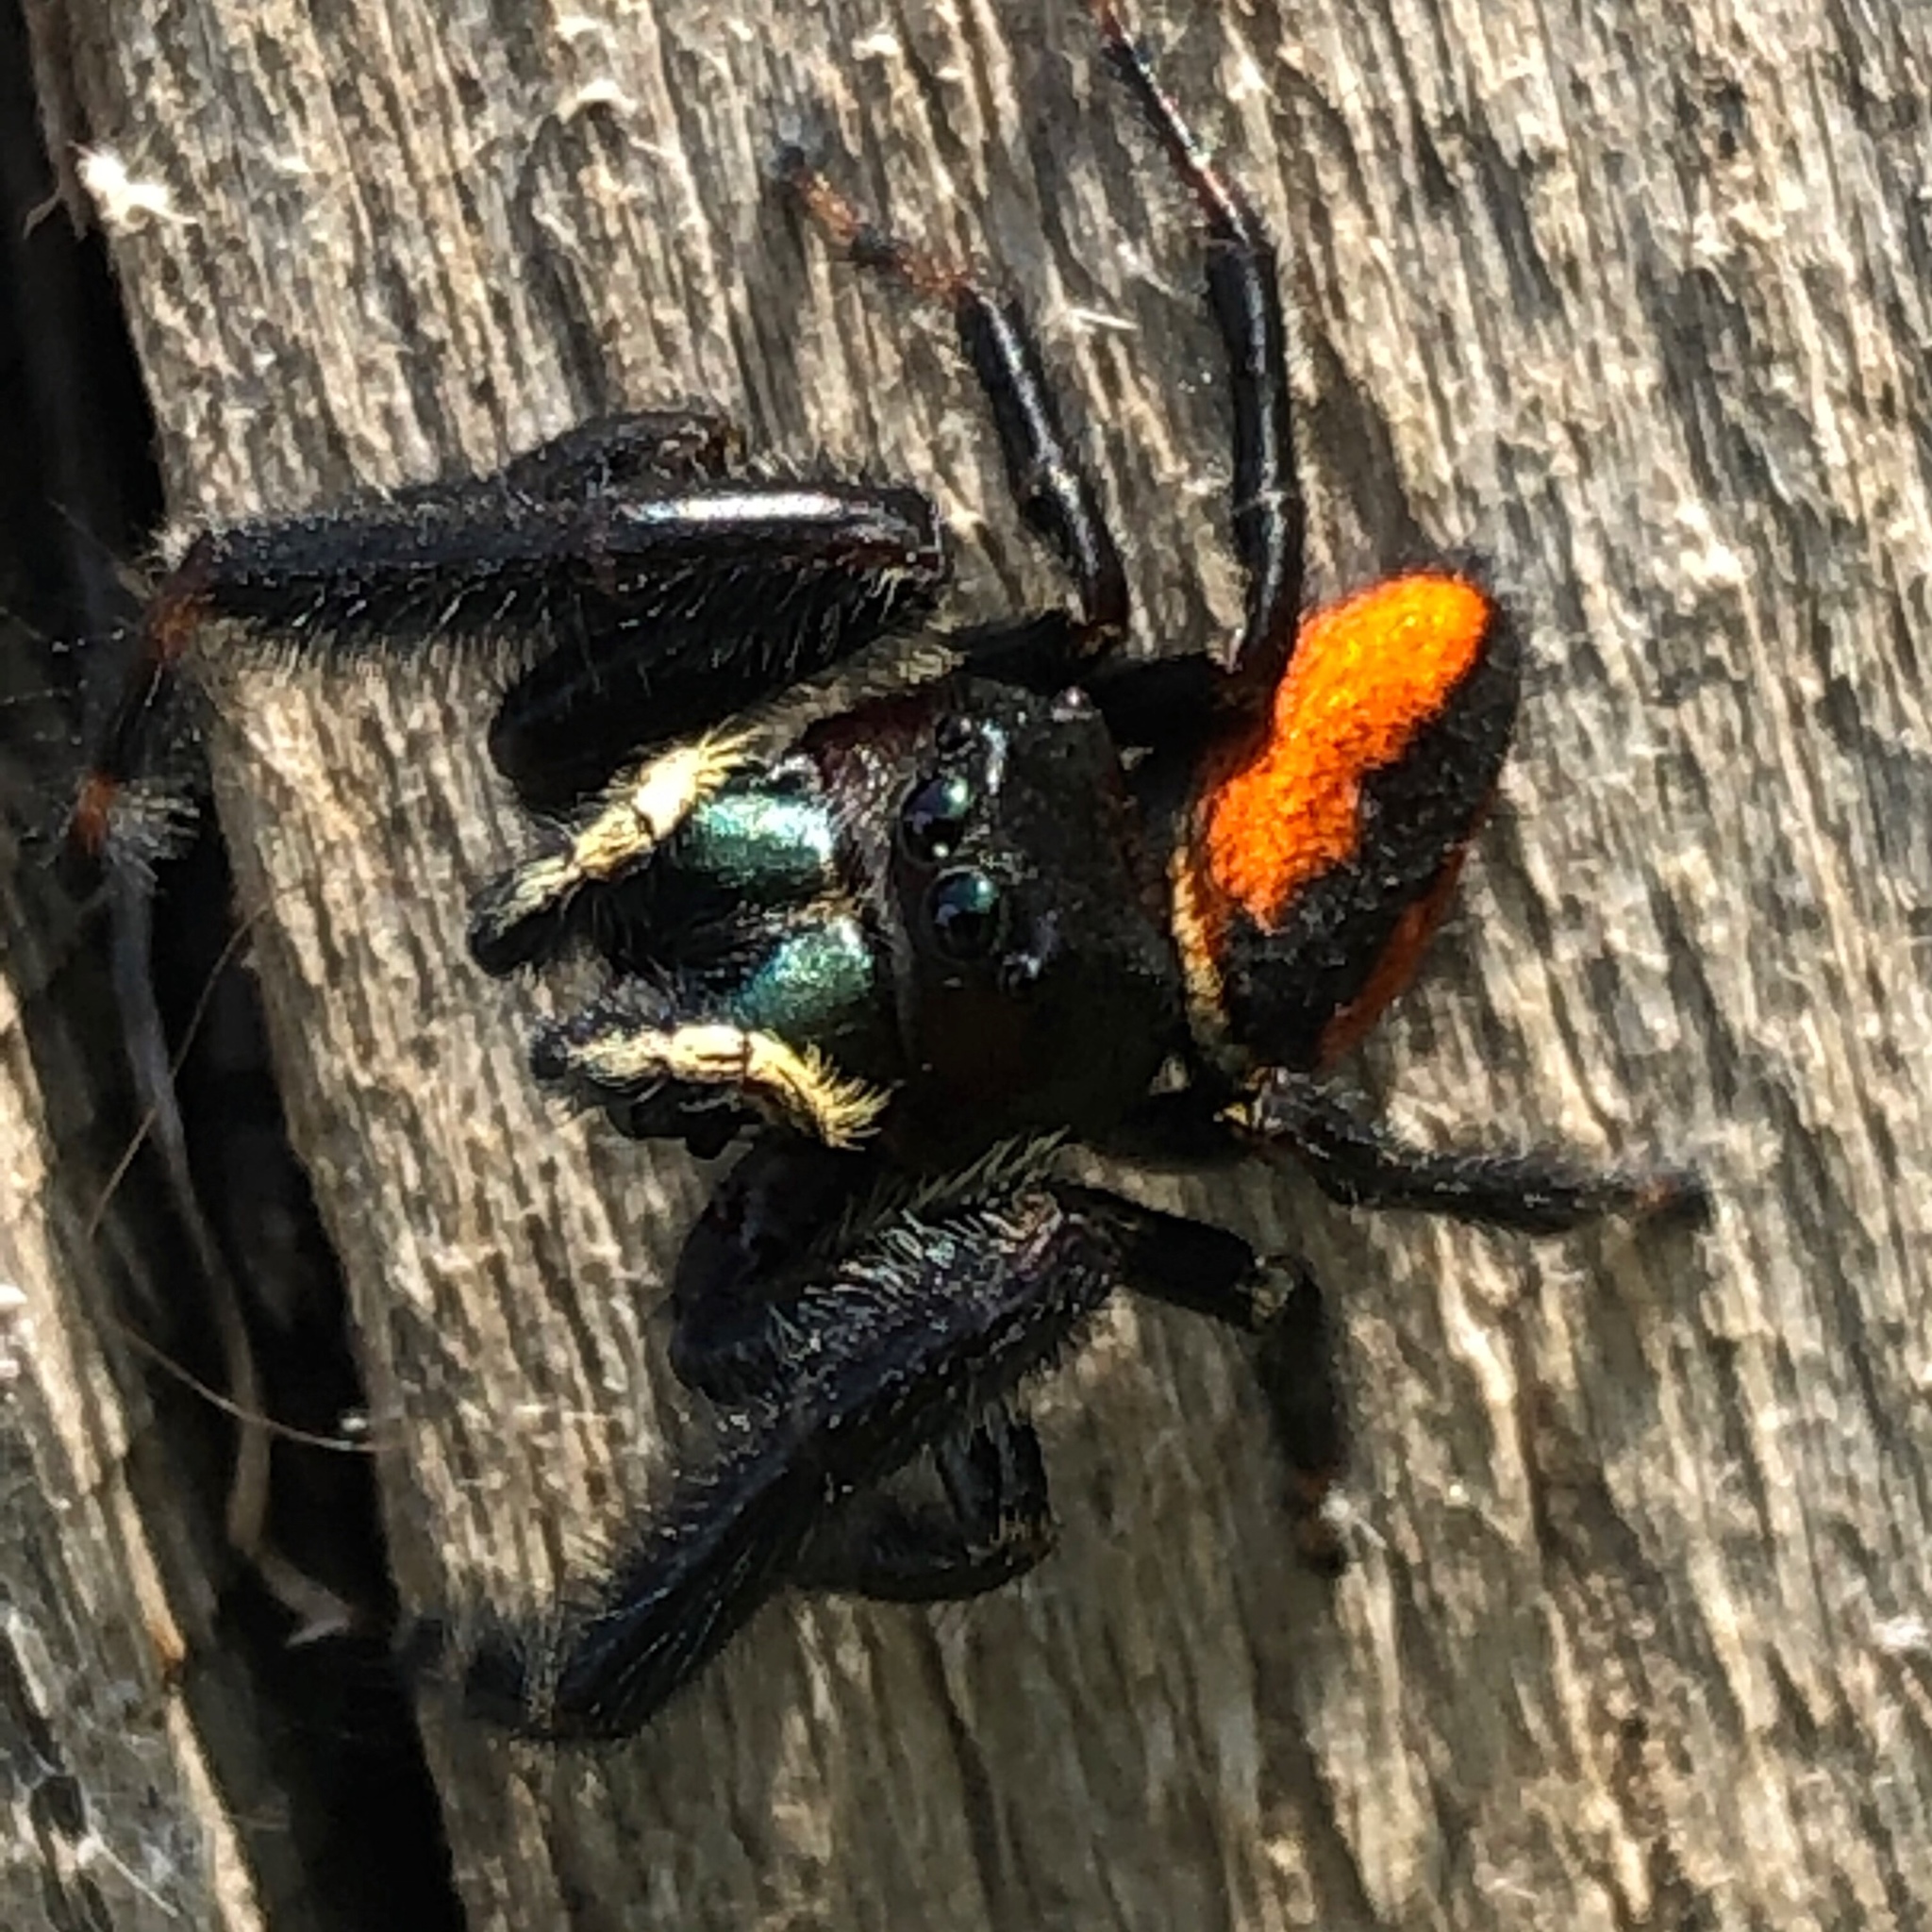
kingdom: Animalia
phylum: Arthropoda
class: Arachnida
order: Araneae
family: Salticidae
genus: Phidippus
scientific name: Phidippus clarus
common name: Brilliant jumping spider
